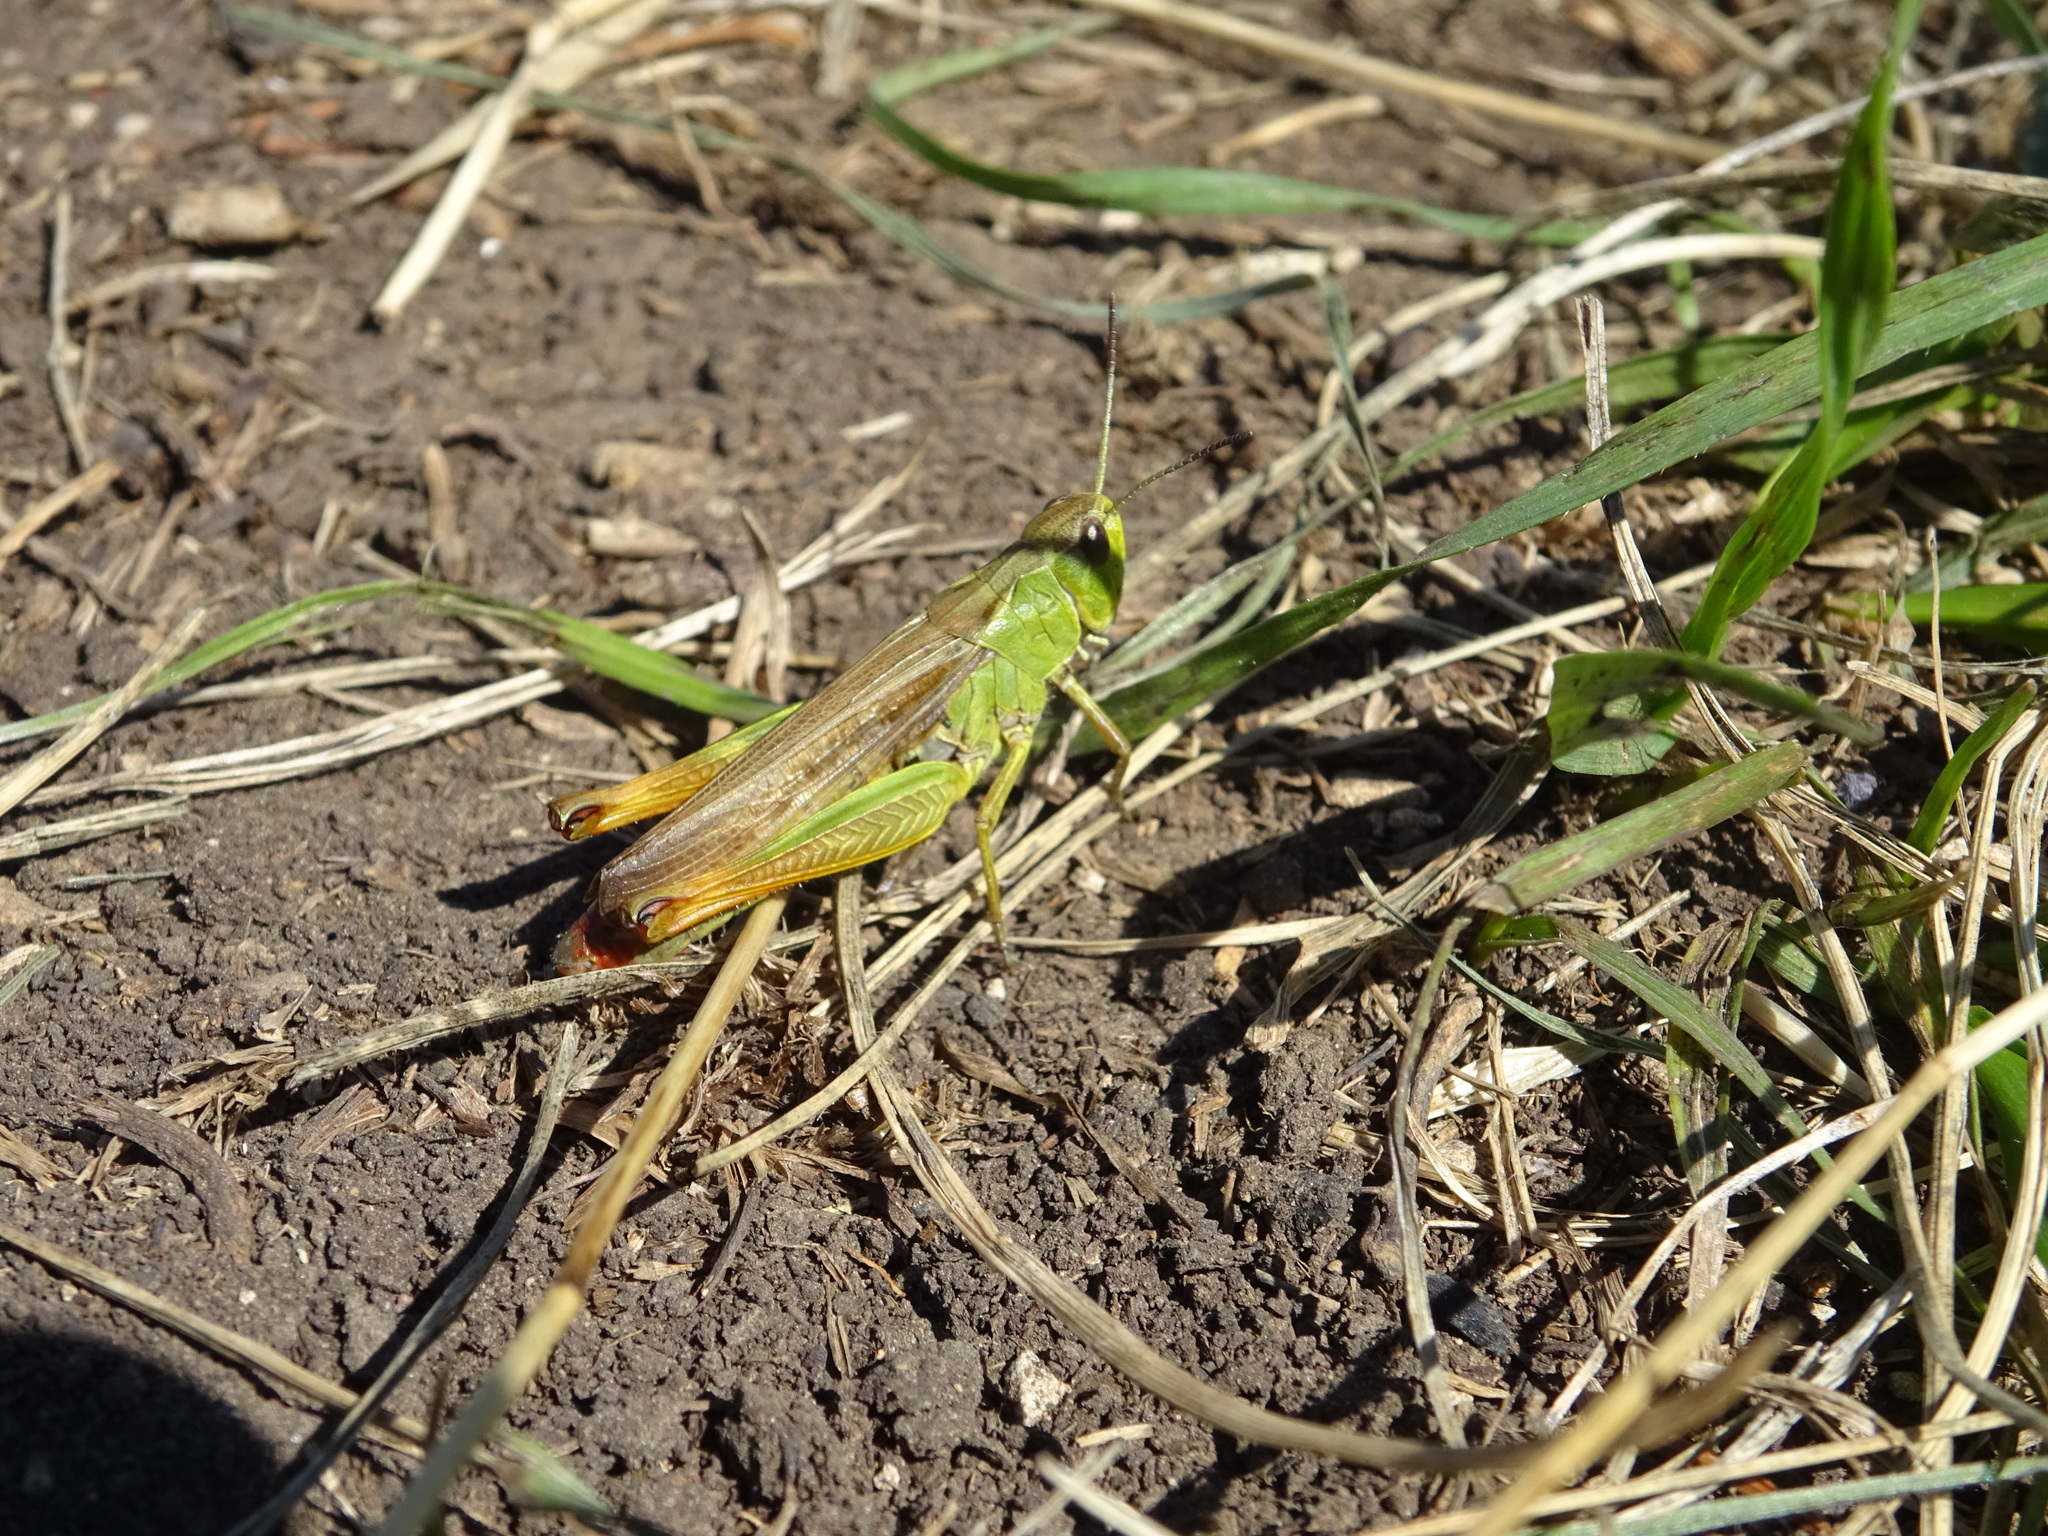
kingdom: Animalia
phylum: Arthropoda
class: Insecta
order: Orthoptera
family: Acrididae
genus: Stauroderus
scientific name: Stauroderus scalaris
